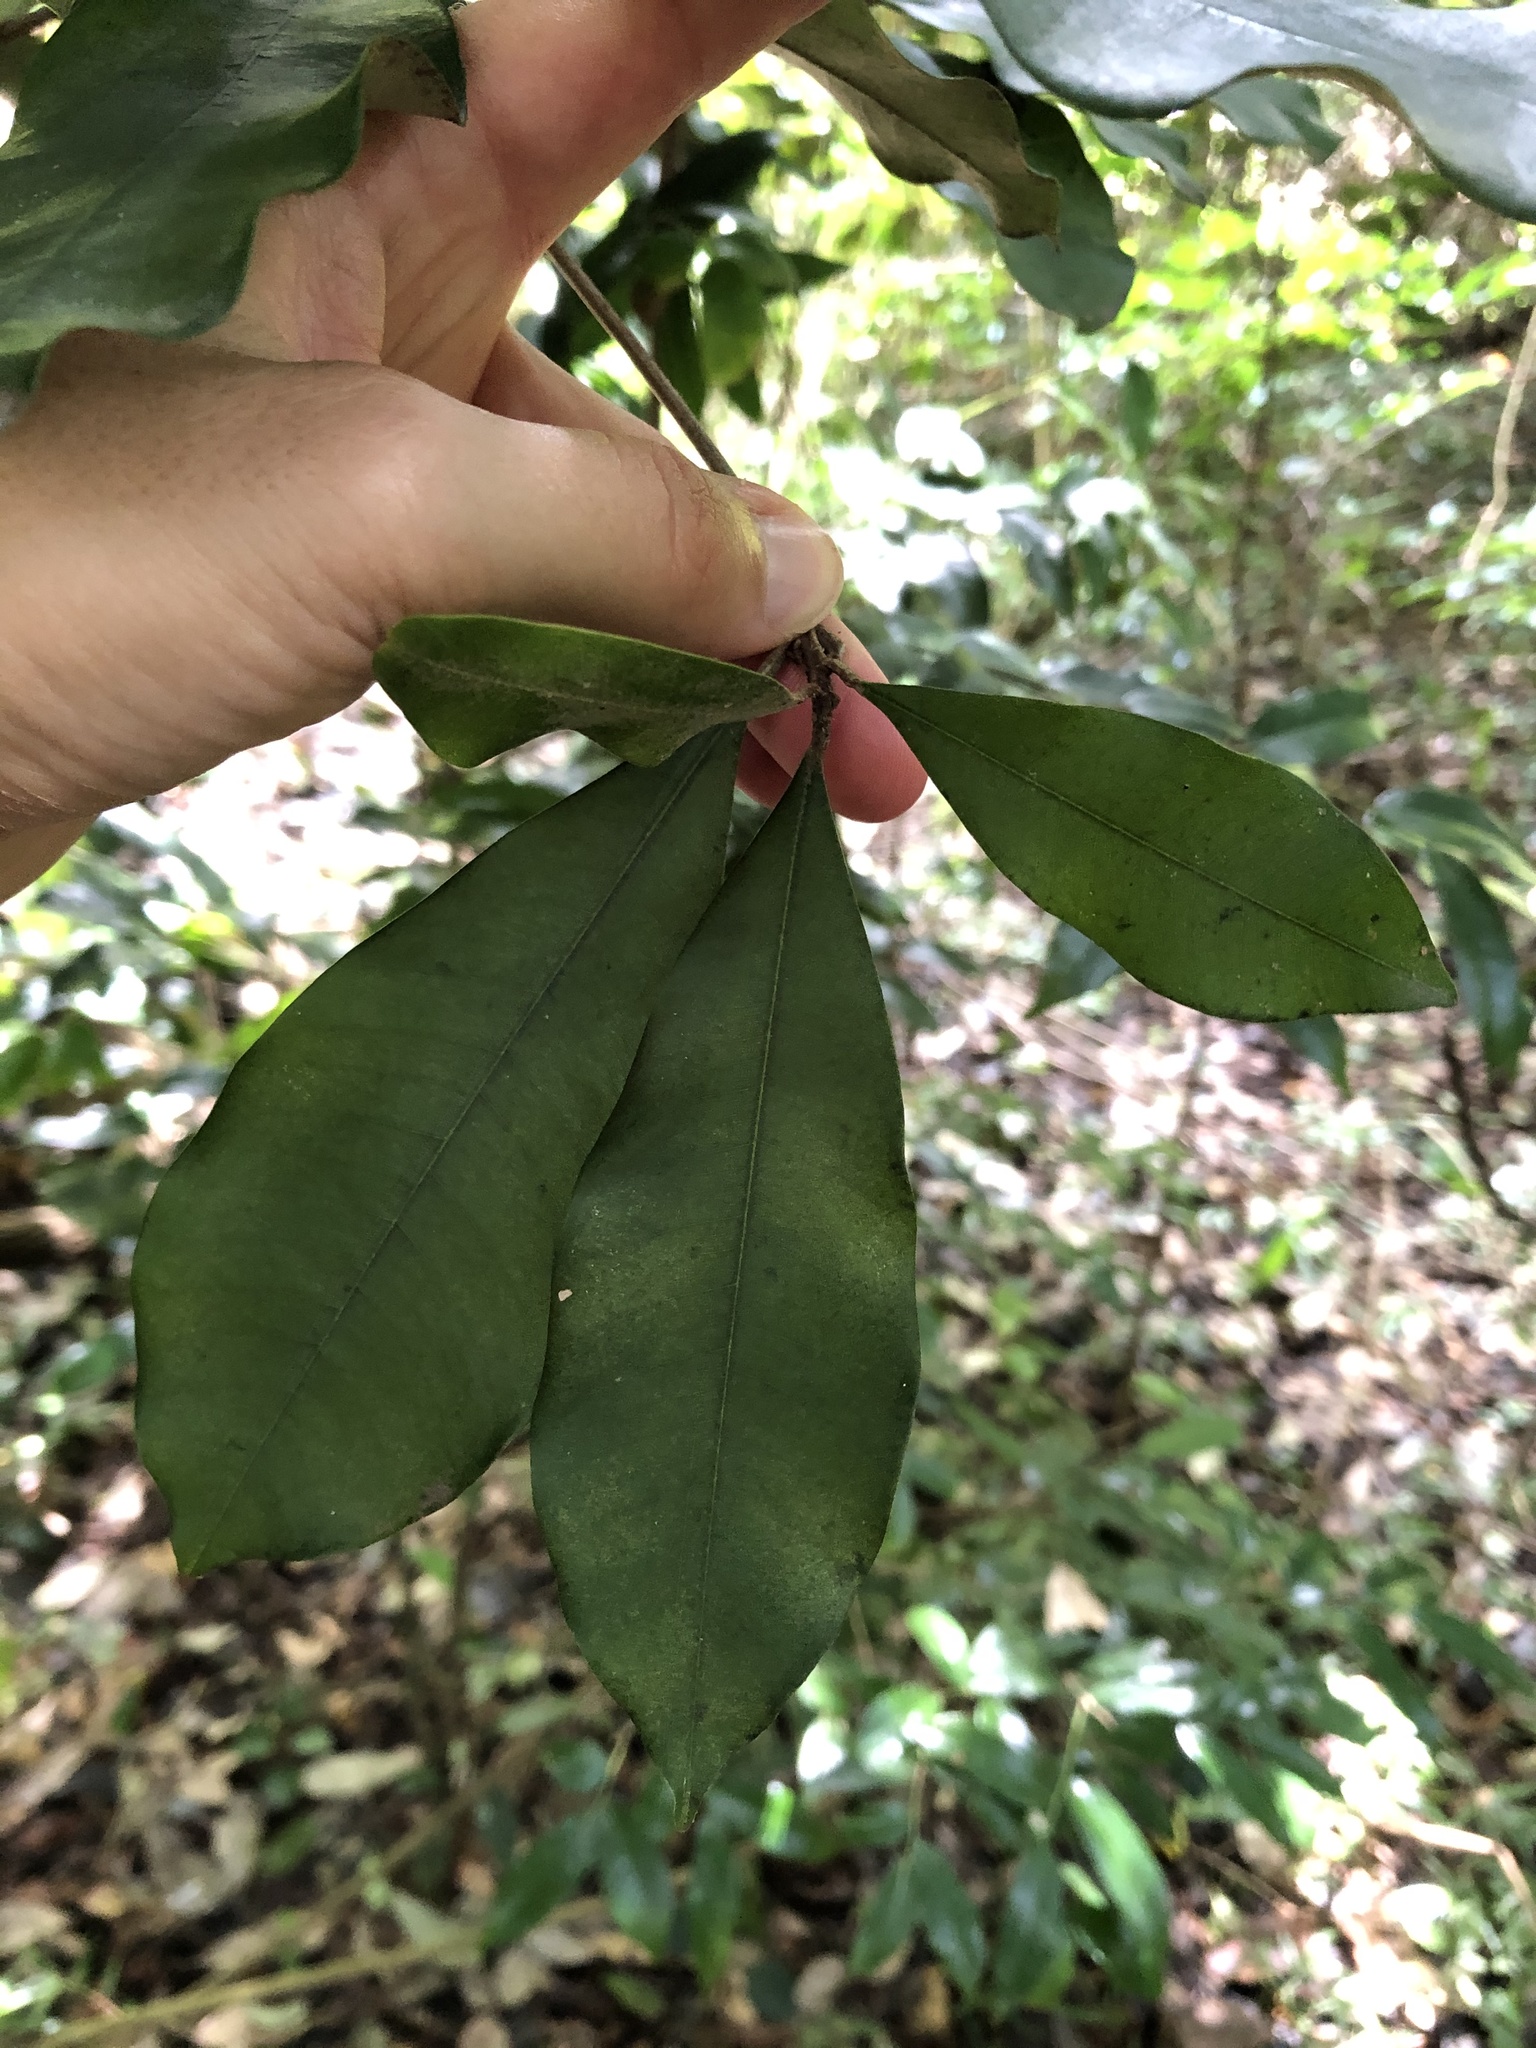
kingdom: Plantae
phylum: Tracheophyta
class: Magnoliopsida
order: Ericales
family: Sapotaceae
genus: Englerophytum
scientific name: Englerophytum natalense
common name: Silver-leaved milkplum
